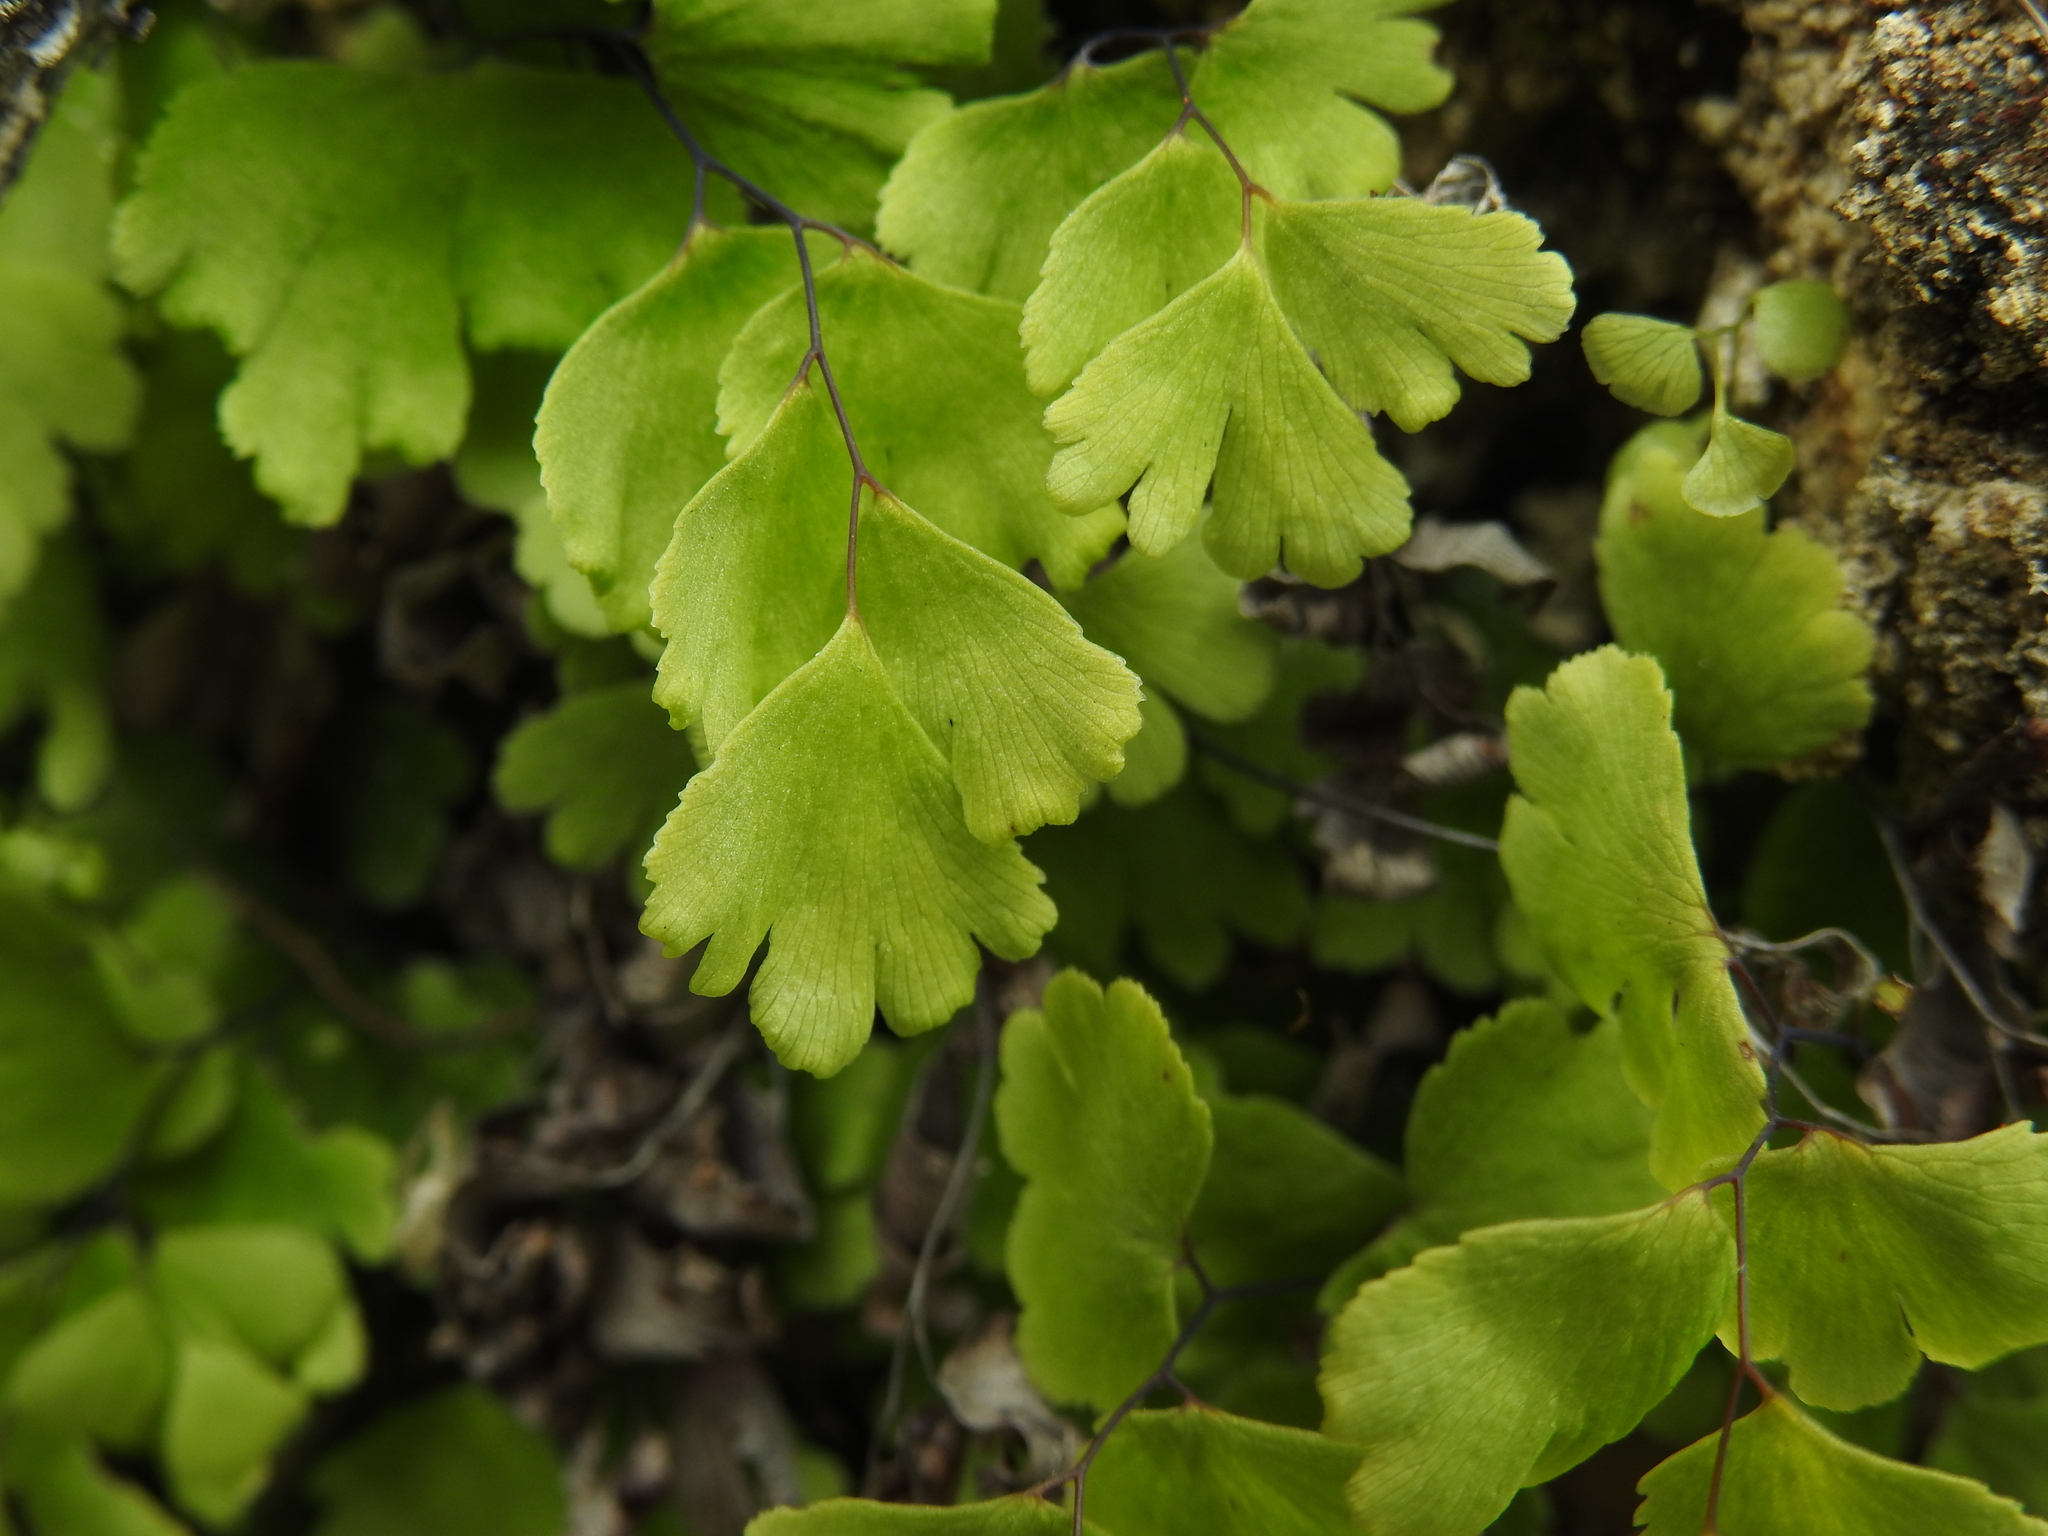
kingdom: Plantae
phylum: Tracheophyta
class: Polypodiopsida
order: Polypodiales
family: Pteridaceae
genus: Adiantum
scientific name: Adiantum capillus-veneris
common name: Maidenhair fern
